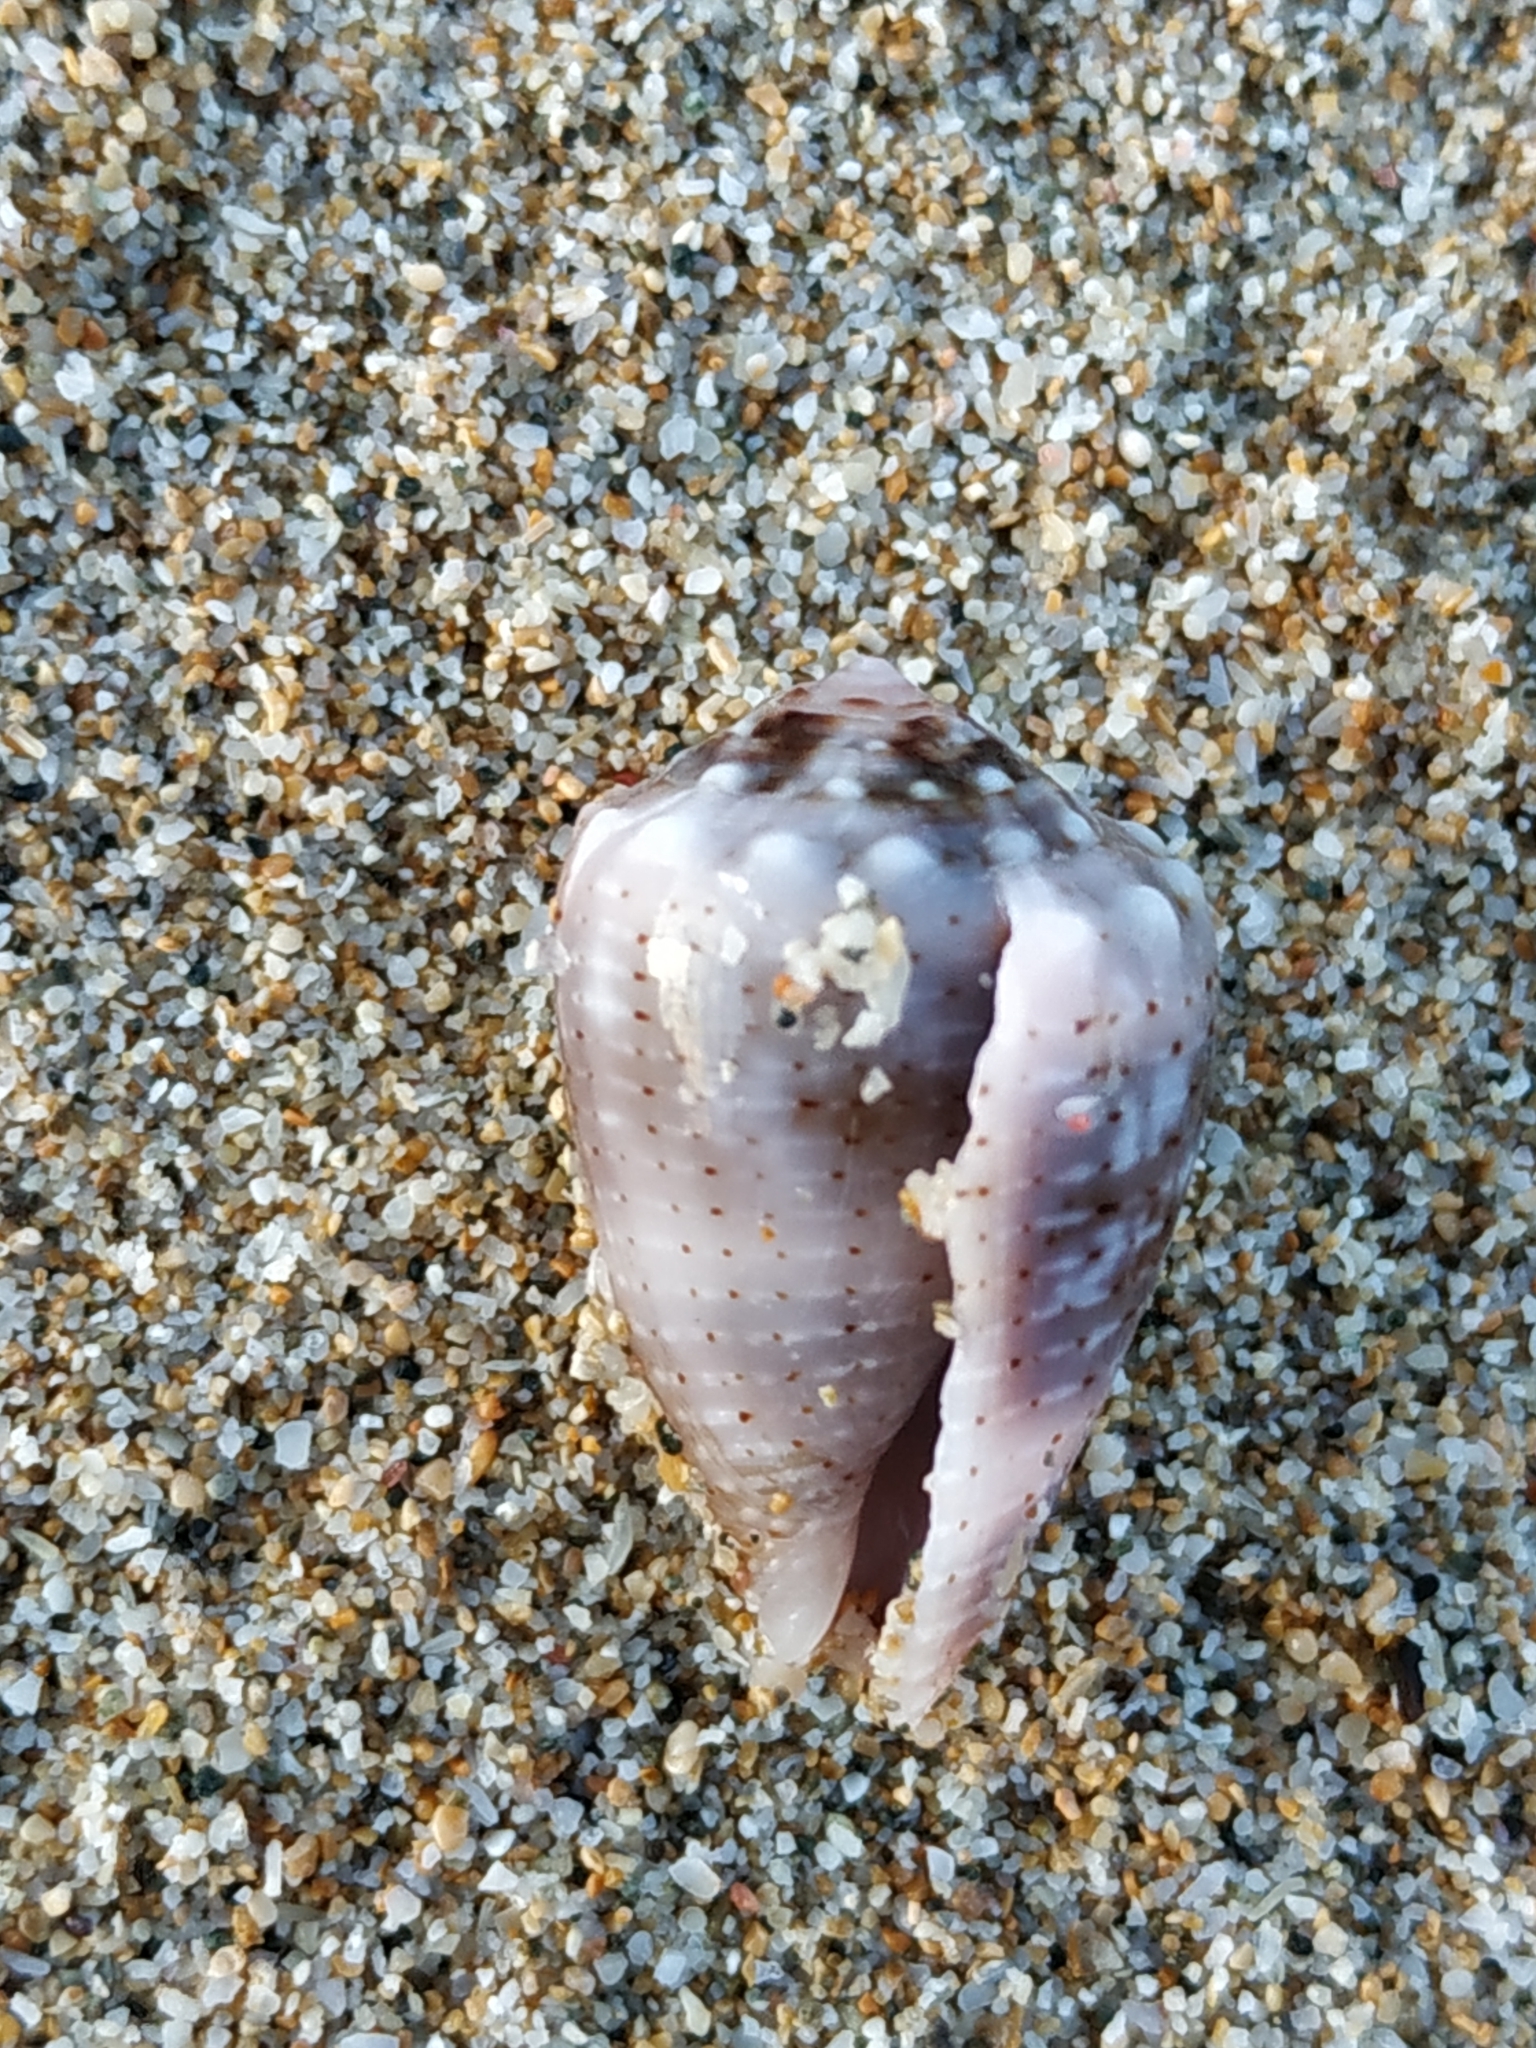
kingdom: Animalia
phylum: Mollusca
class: Gastropoda
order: Neogastropoda
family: Conidae
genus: Conus
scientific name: Conus coronatus
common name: Coronated cone
